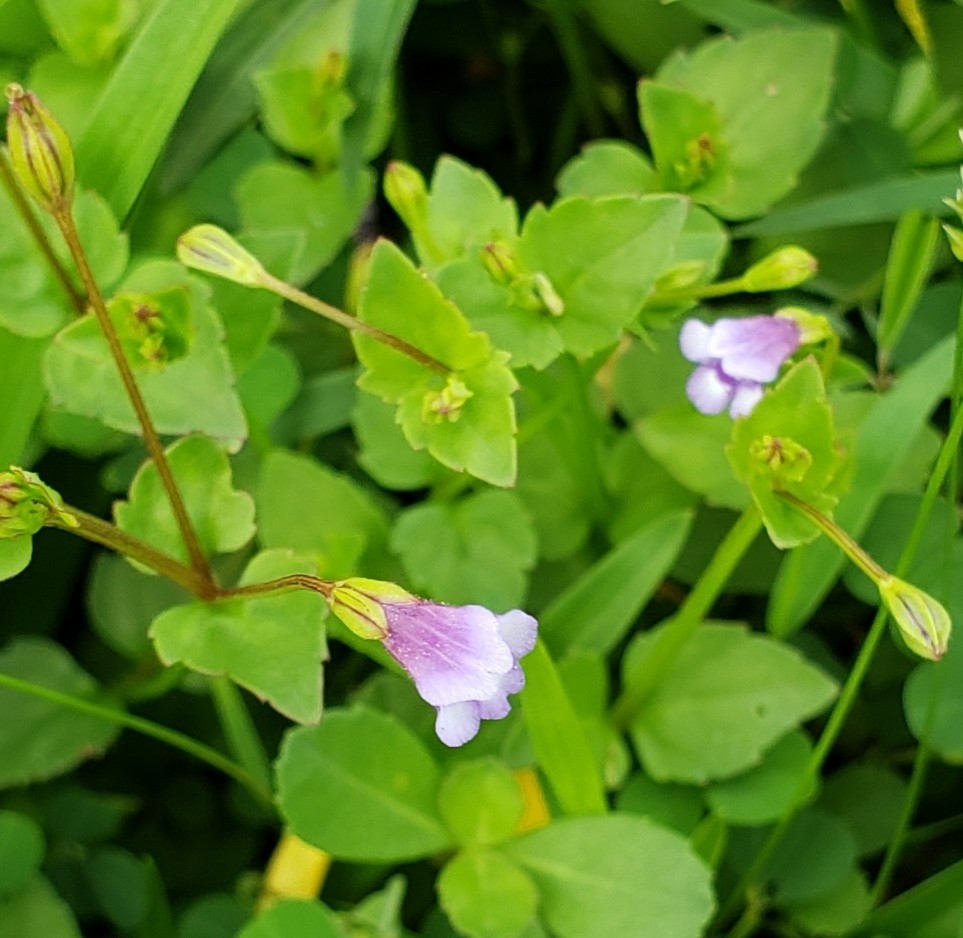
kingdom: Plantae
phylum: Tracheophyta
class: Magnoliopsida
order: Lamiales
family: Linderniaceae
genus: Torenia
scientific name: Torenia crustacea
